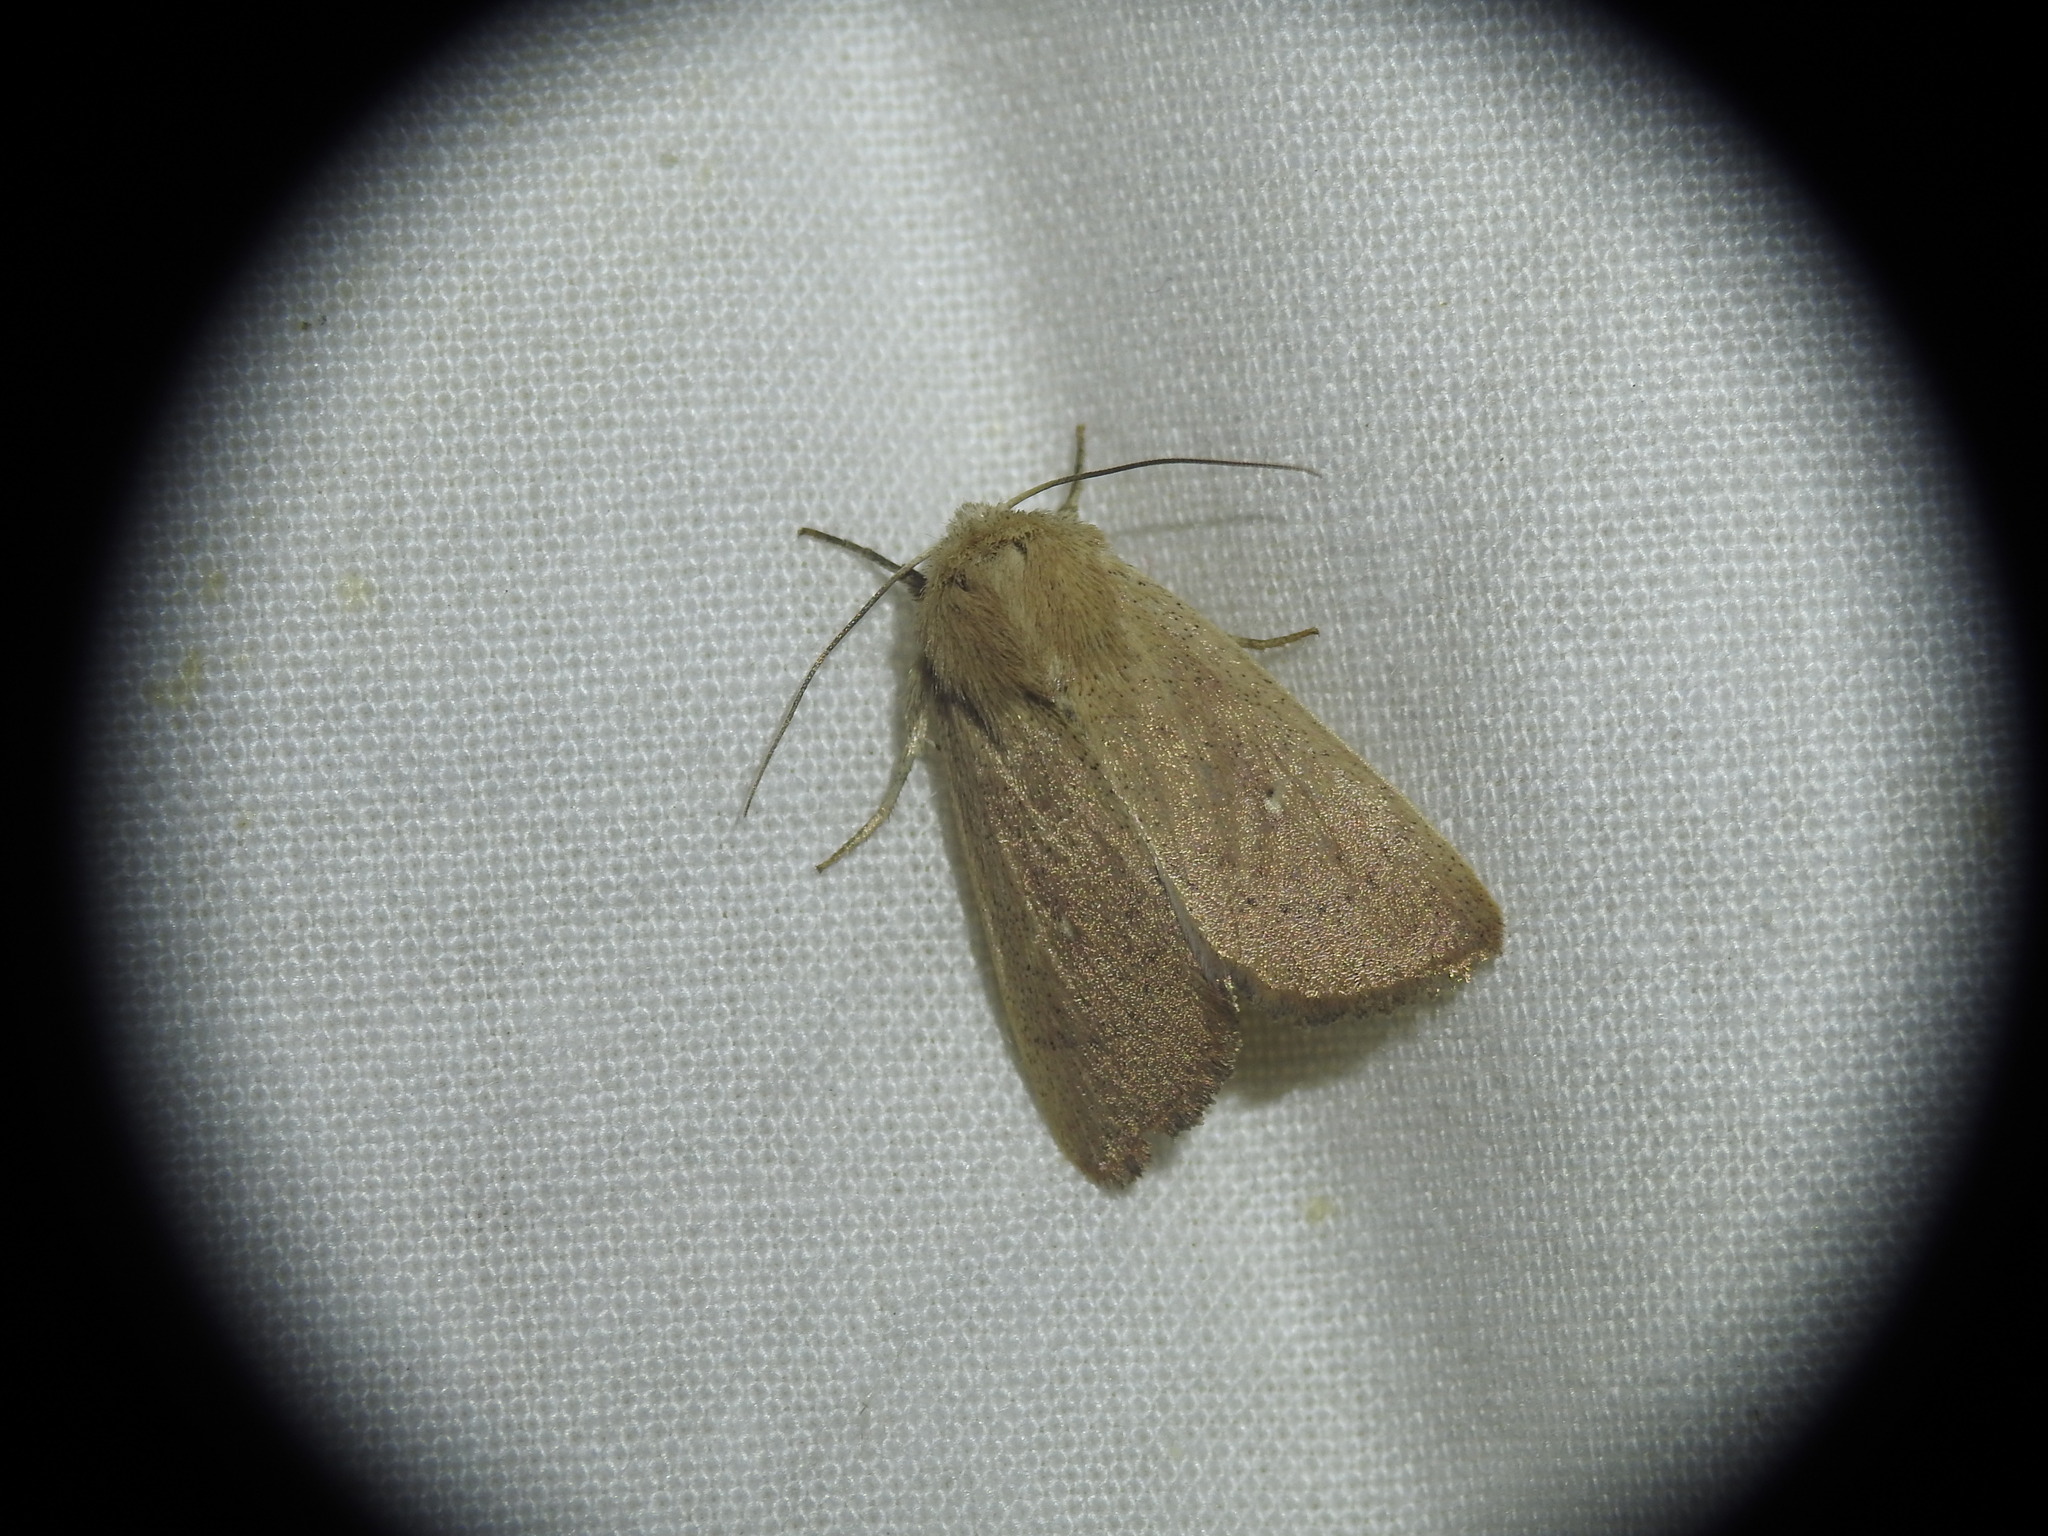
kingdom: Animalia
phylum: Arthropoda
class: Insecta
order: Lepidoptera
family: Noctuidae
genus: Mythimna
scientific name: Mythimna sicula
